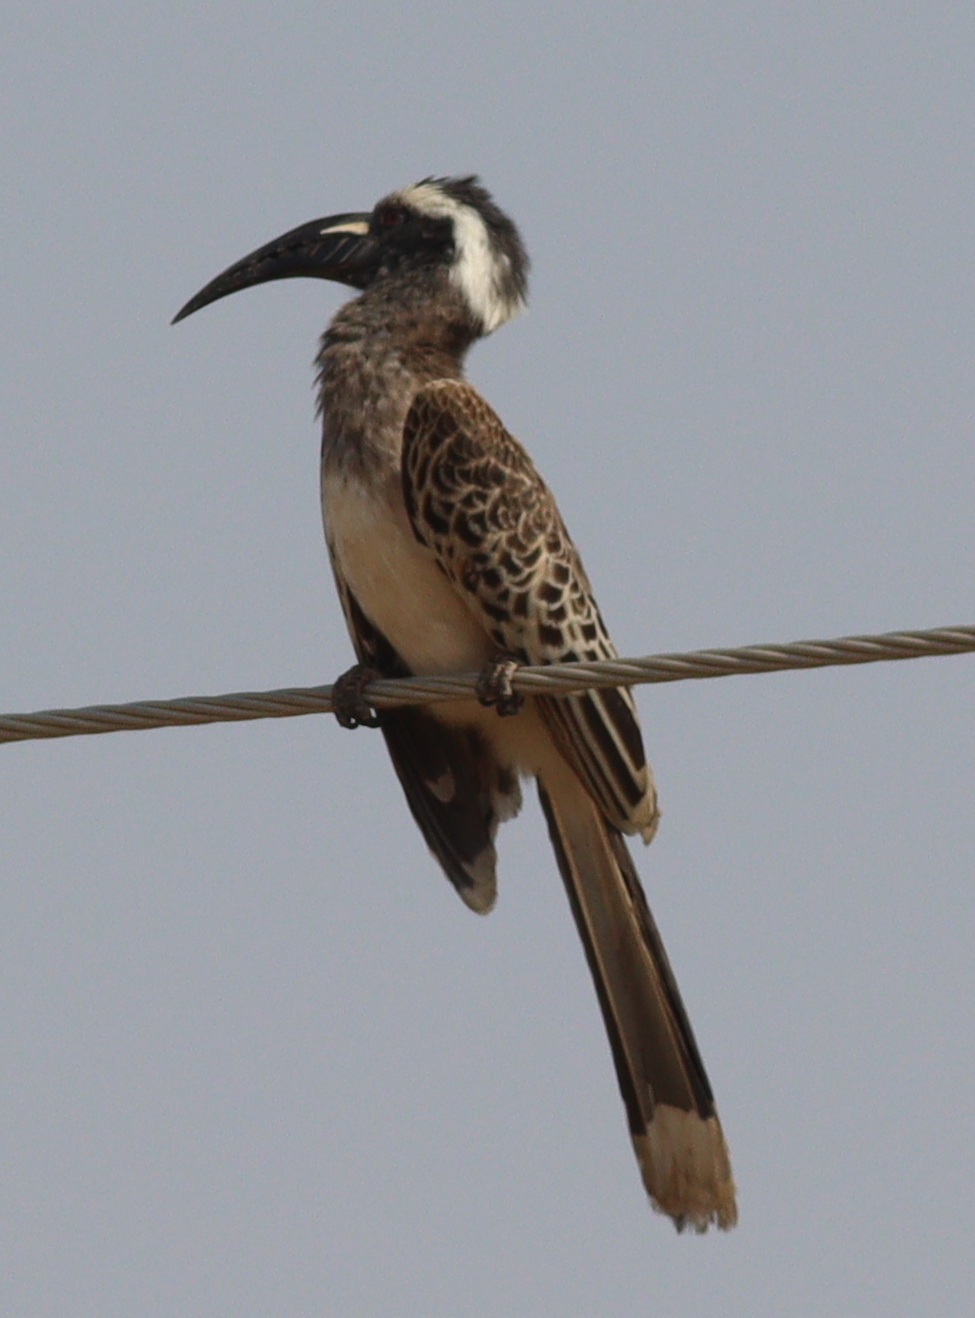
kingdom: Animalia
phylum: Chordata
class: Aves
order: Bucerotiformes
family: Bucerotidae
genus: Lophoceros
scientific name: Lophoceros nasutus
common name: African grey hornbill
